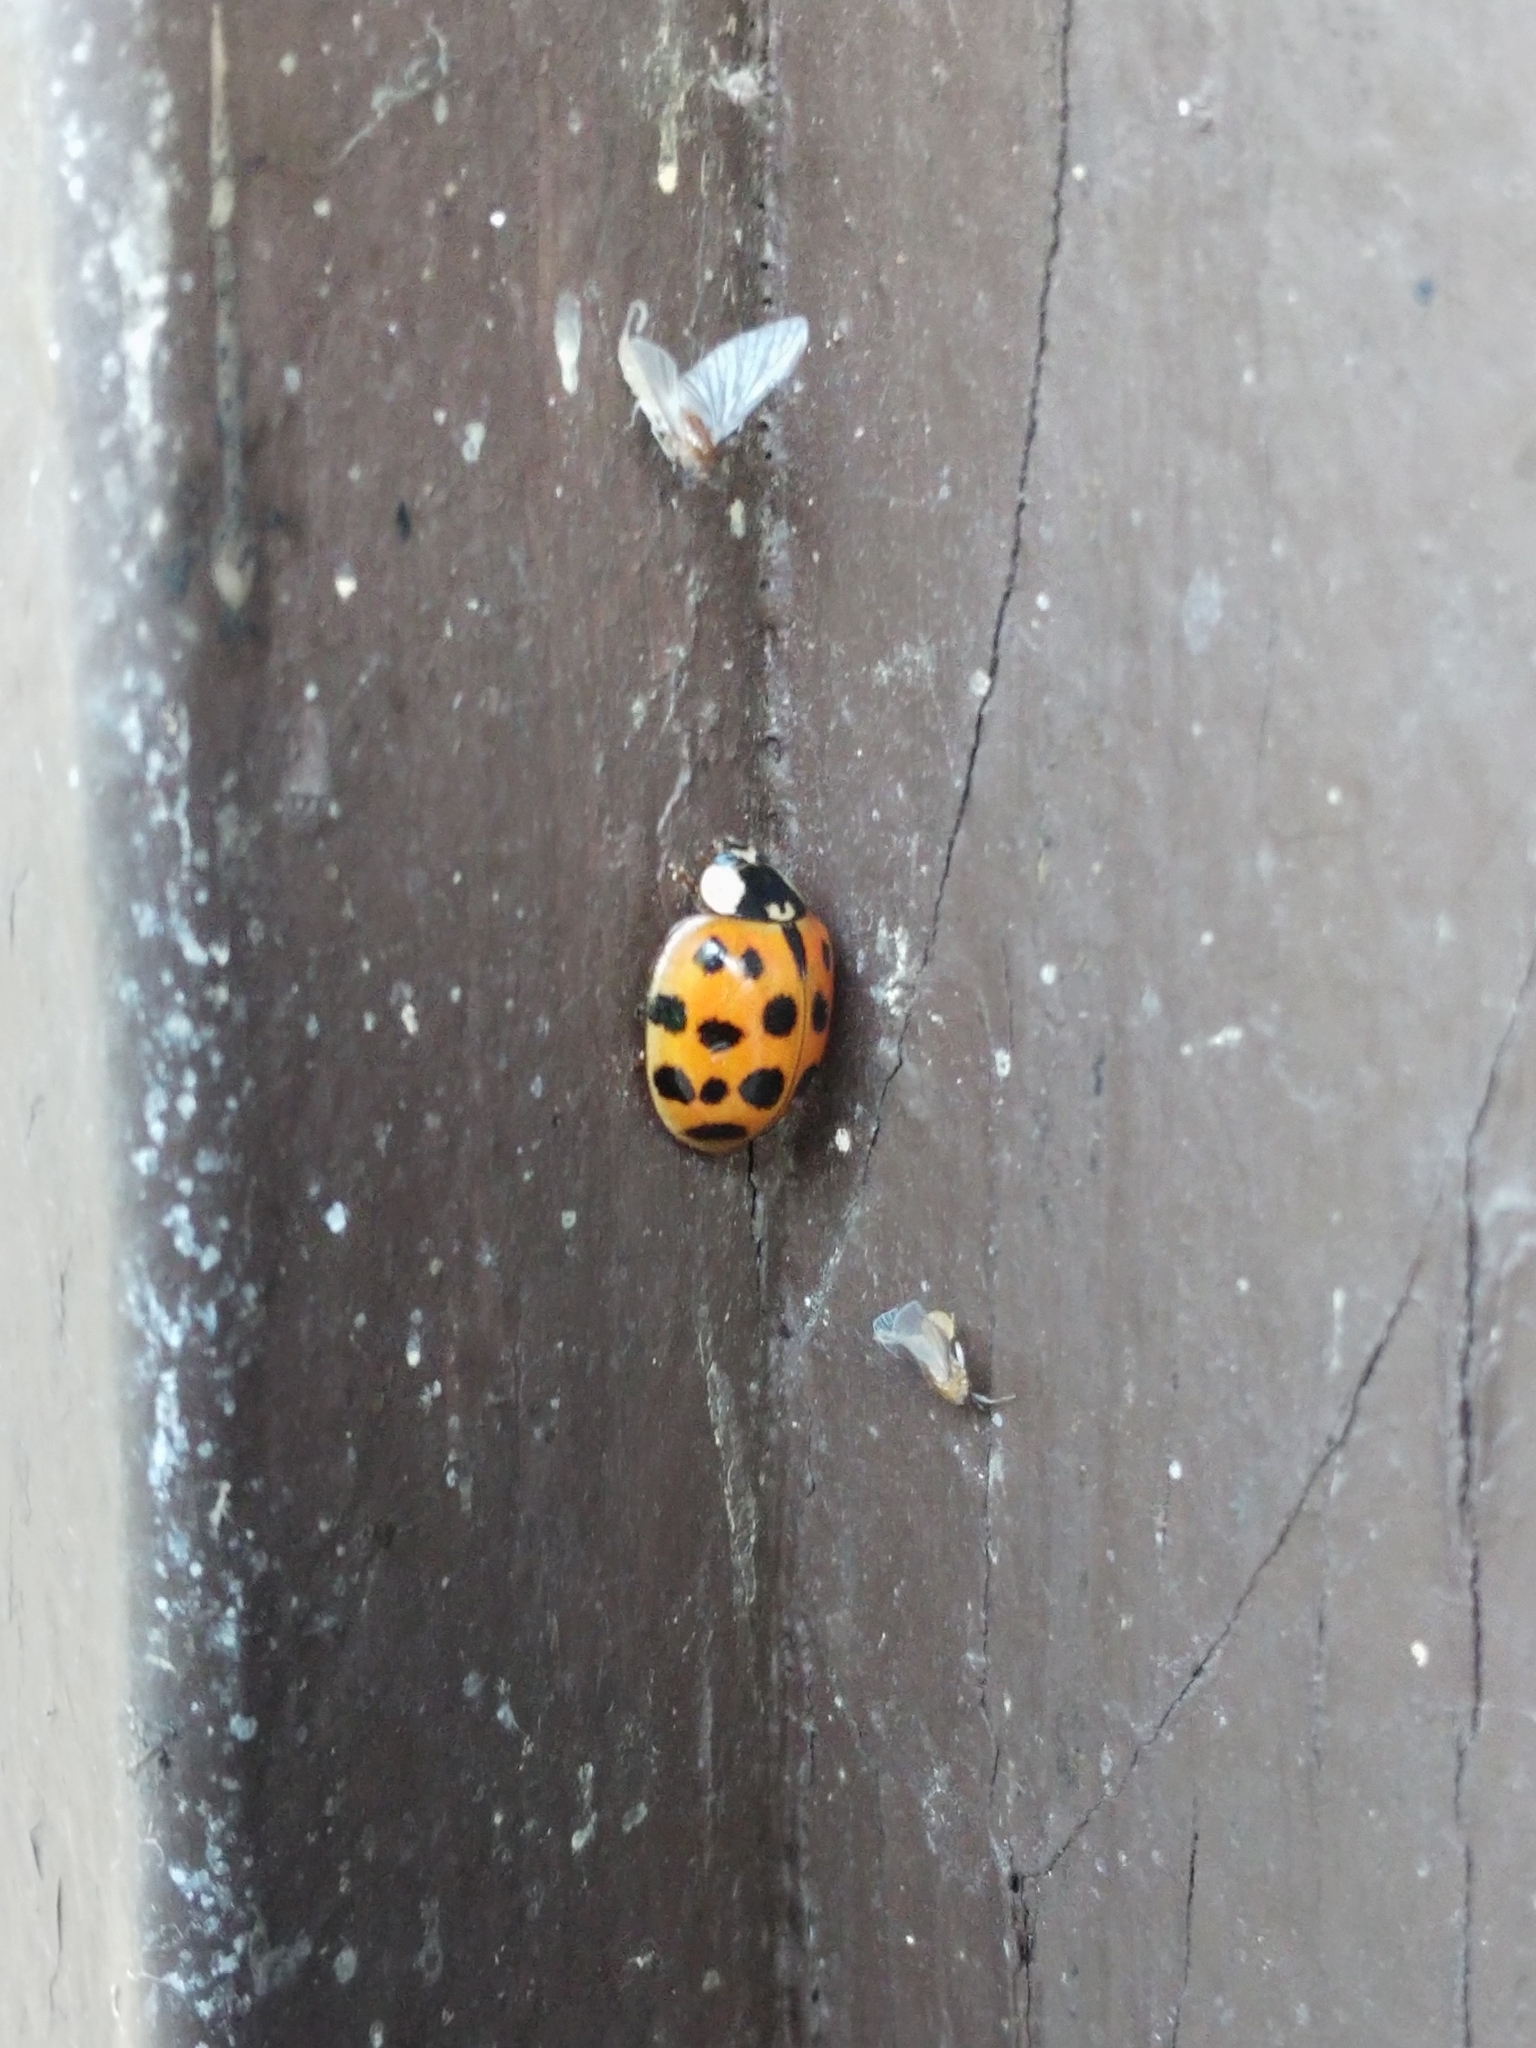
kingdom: Animalia
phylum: Arthropoda
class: Insecta
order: Coleoptera
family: Coccinellidae
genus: Harmonia
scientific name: Harmonia axyridis
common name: Harlequin ladybird
